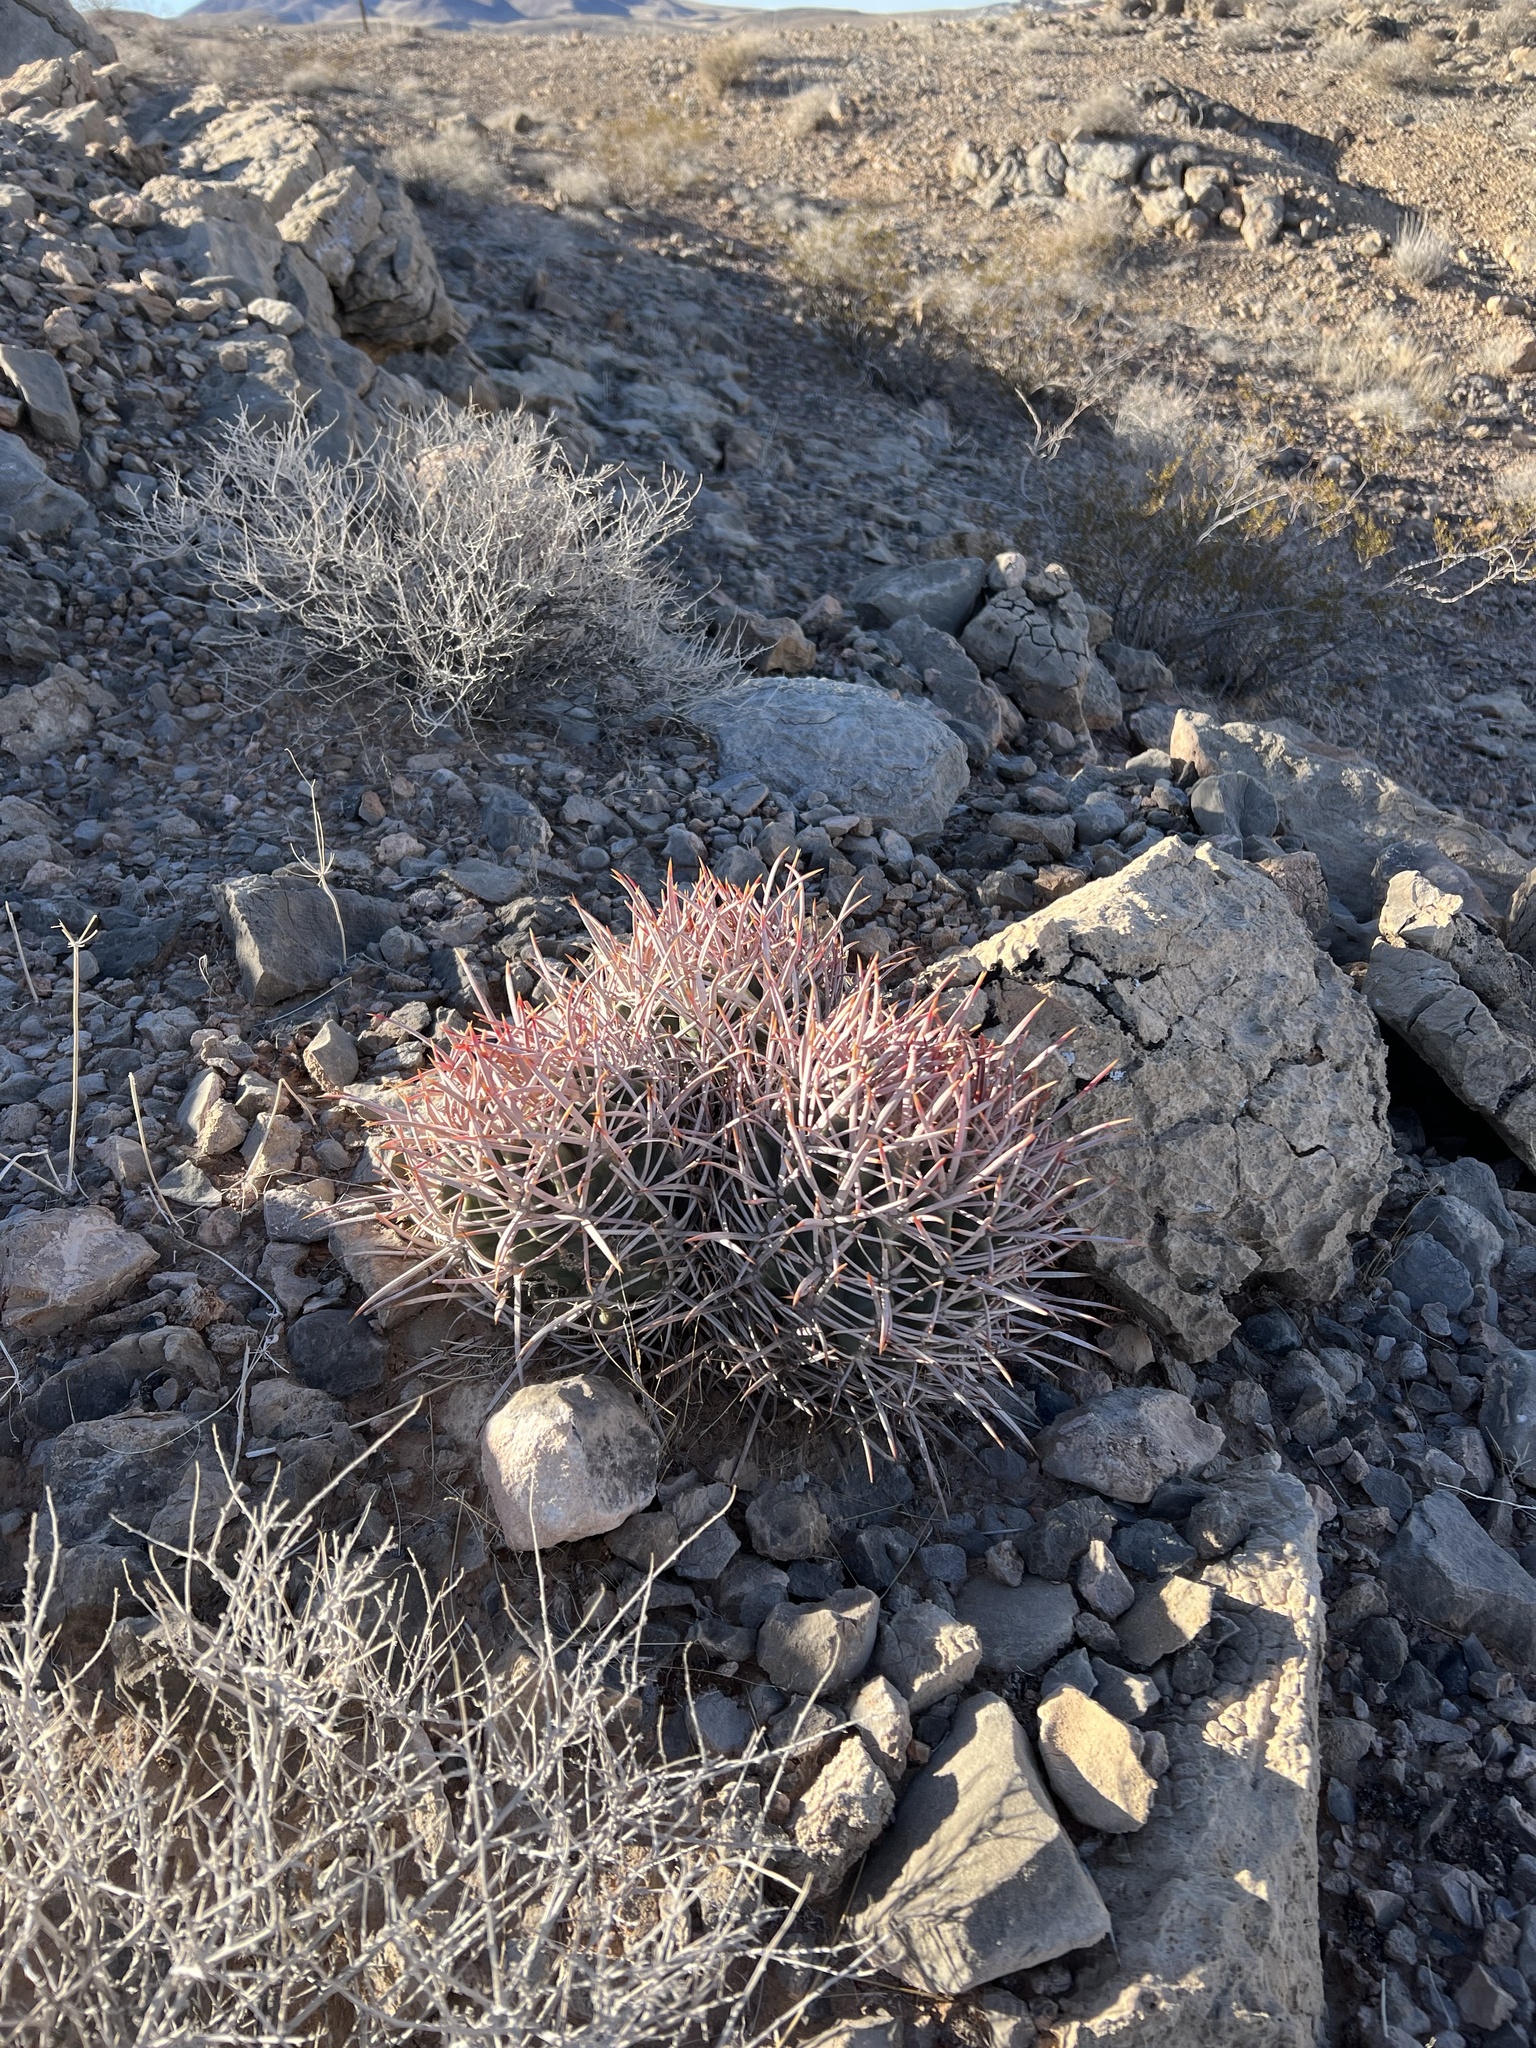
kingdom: Plantae
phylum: Tracheophyta
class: Magnoliopsida
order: Caryophyllales
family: Cactaceae
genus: Echinocactus
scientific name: Echinocactus polycephalus
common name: Cottontop cactus
